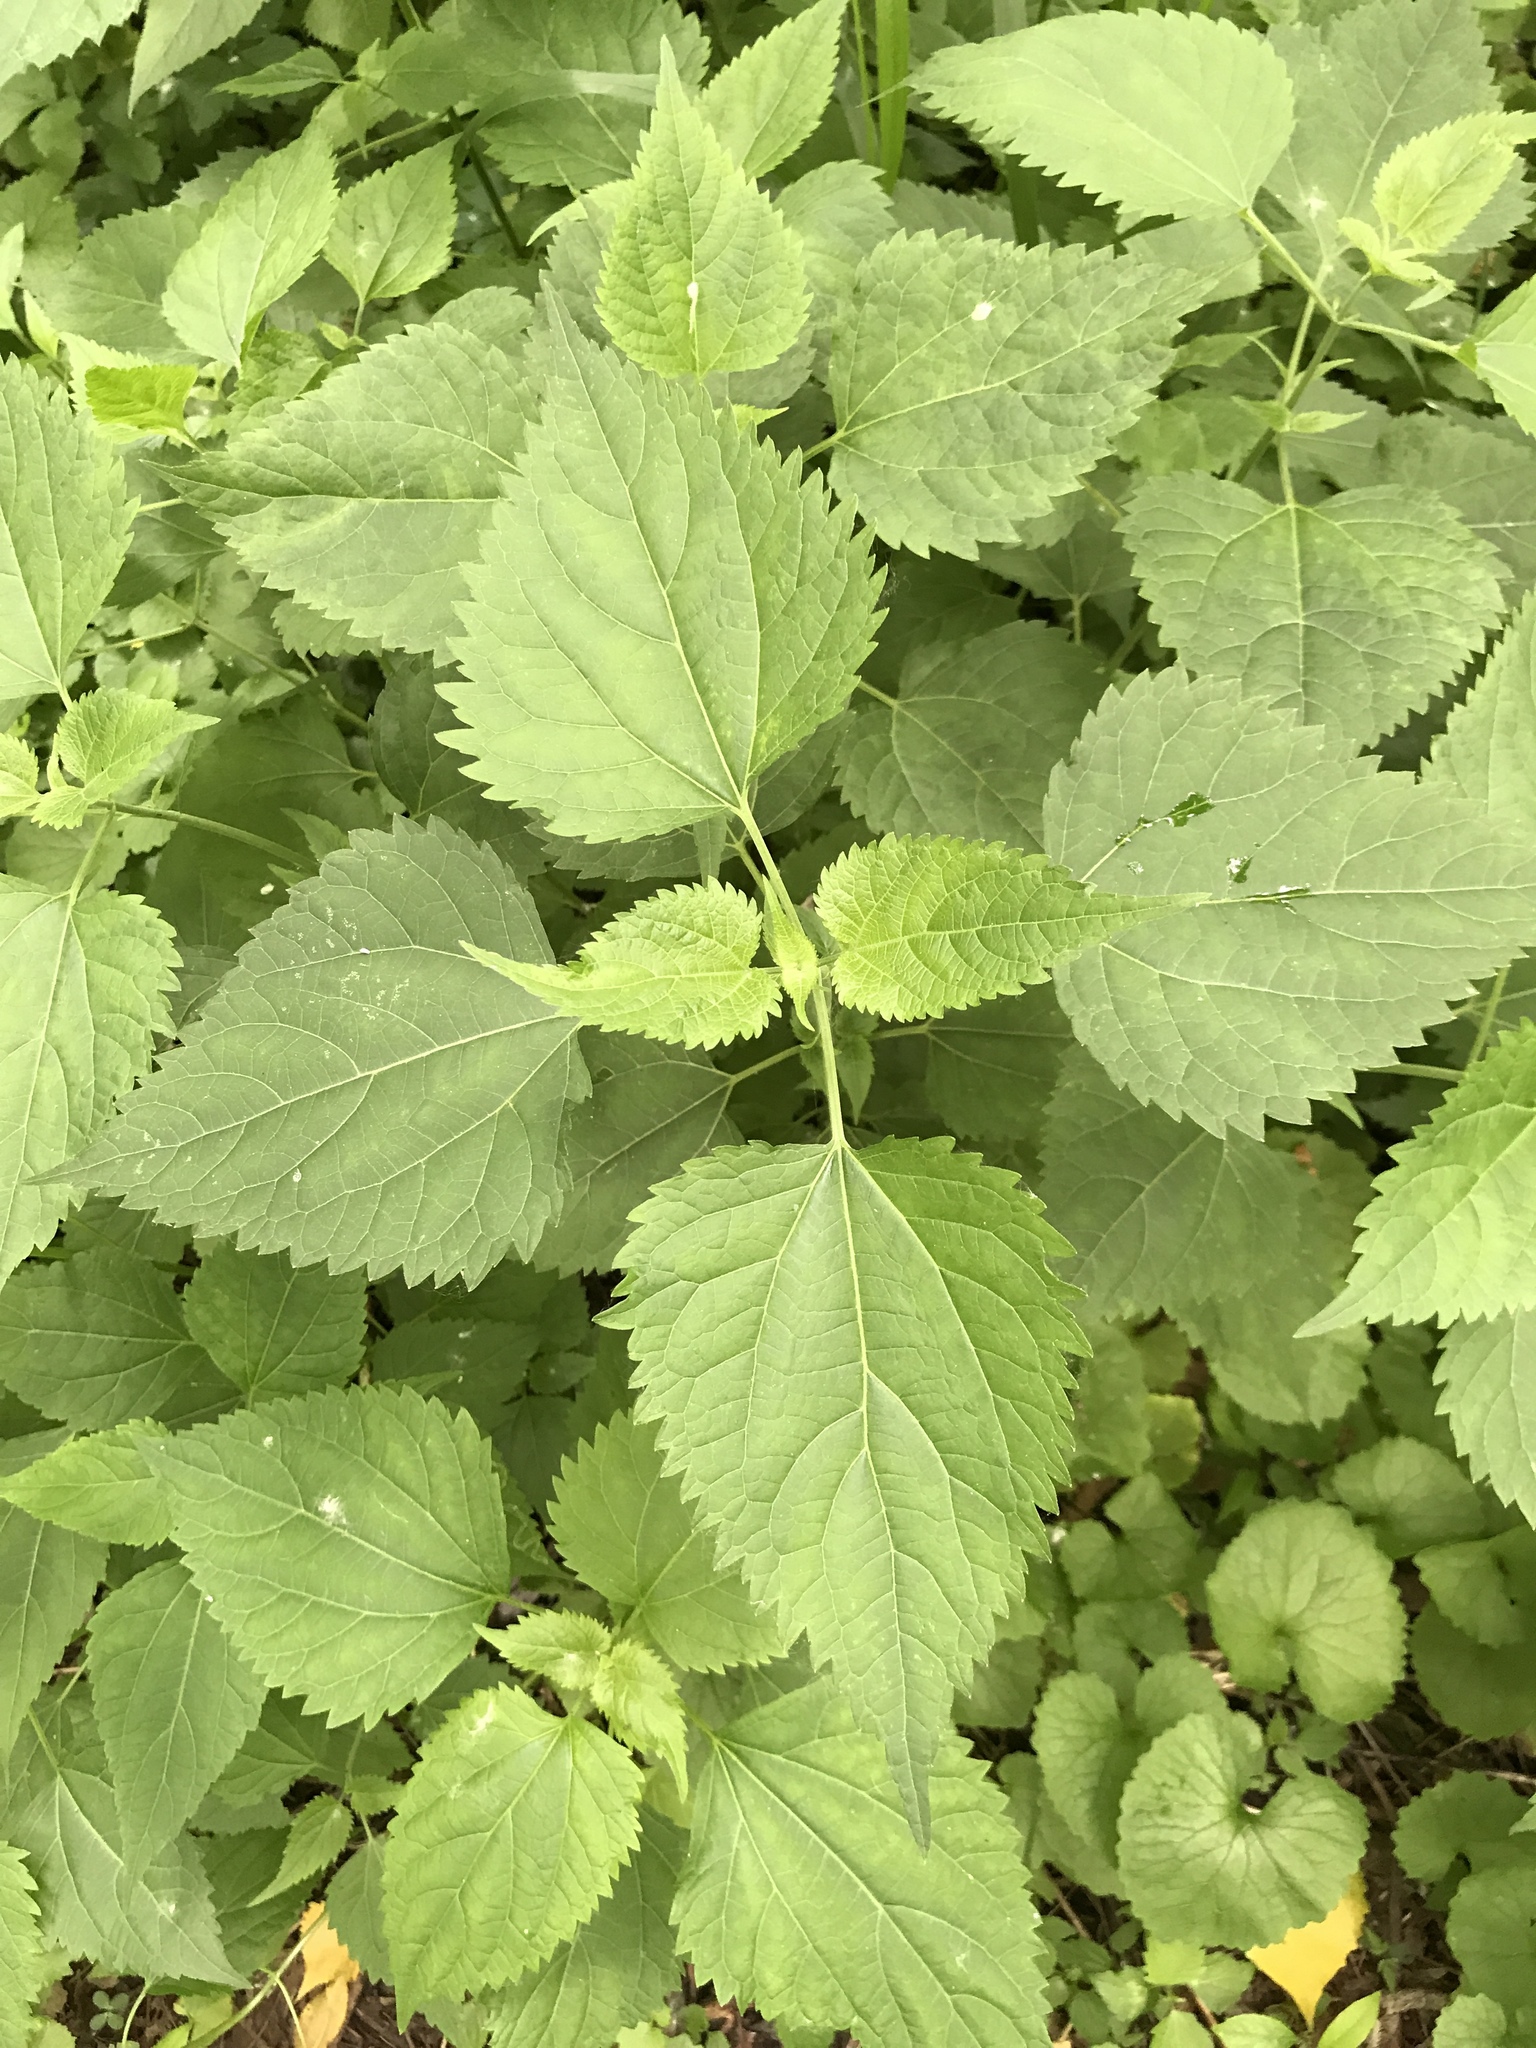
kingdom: Plantae
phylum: Tracheophyta
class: Magnoliopsida
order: Asterales
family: Asteraceae
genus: Ageratina
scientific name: Ageratina altissima
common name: White snakeroot
